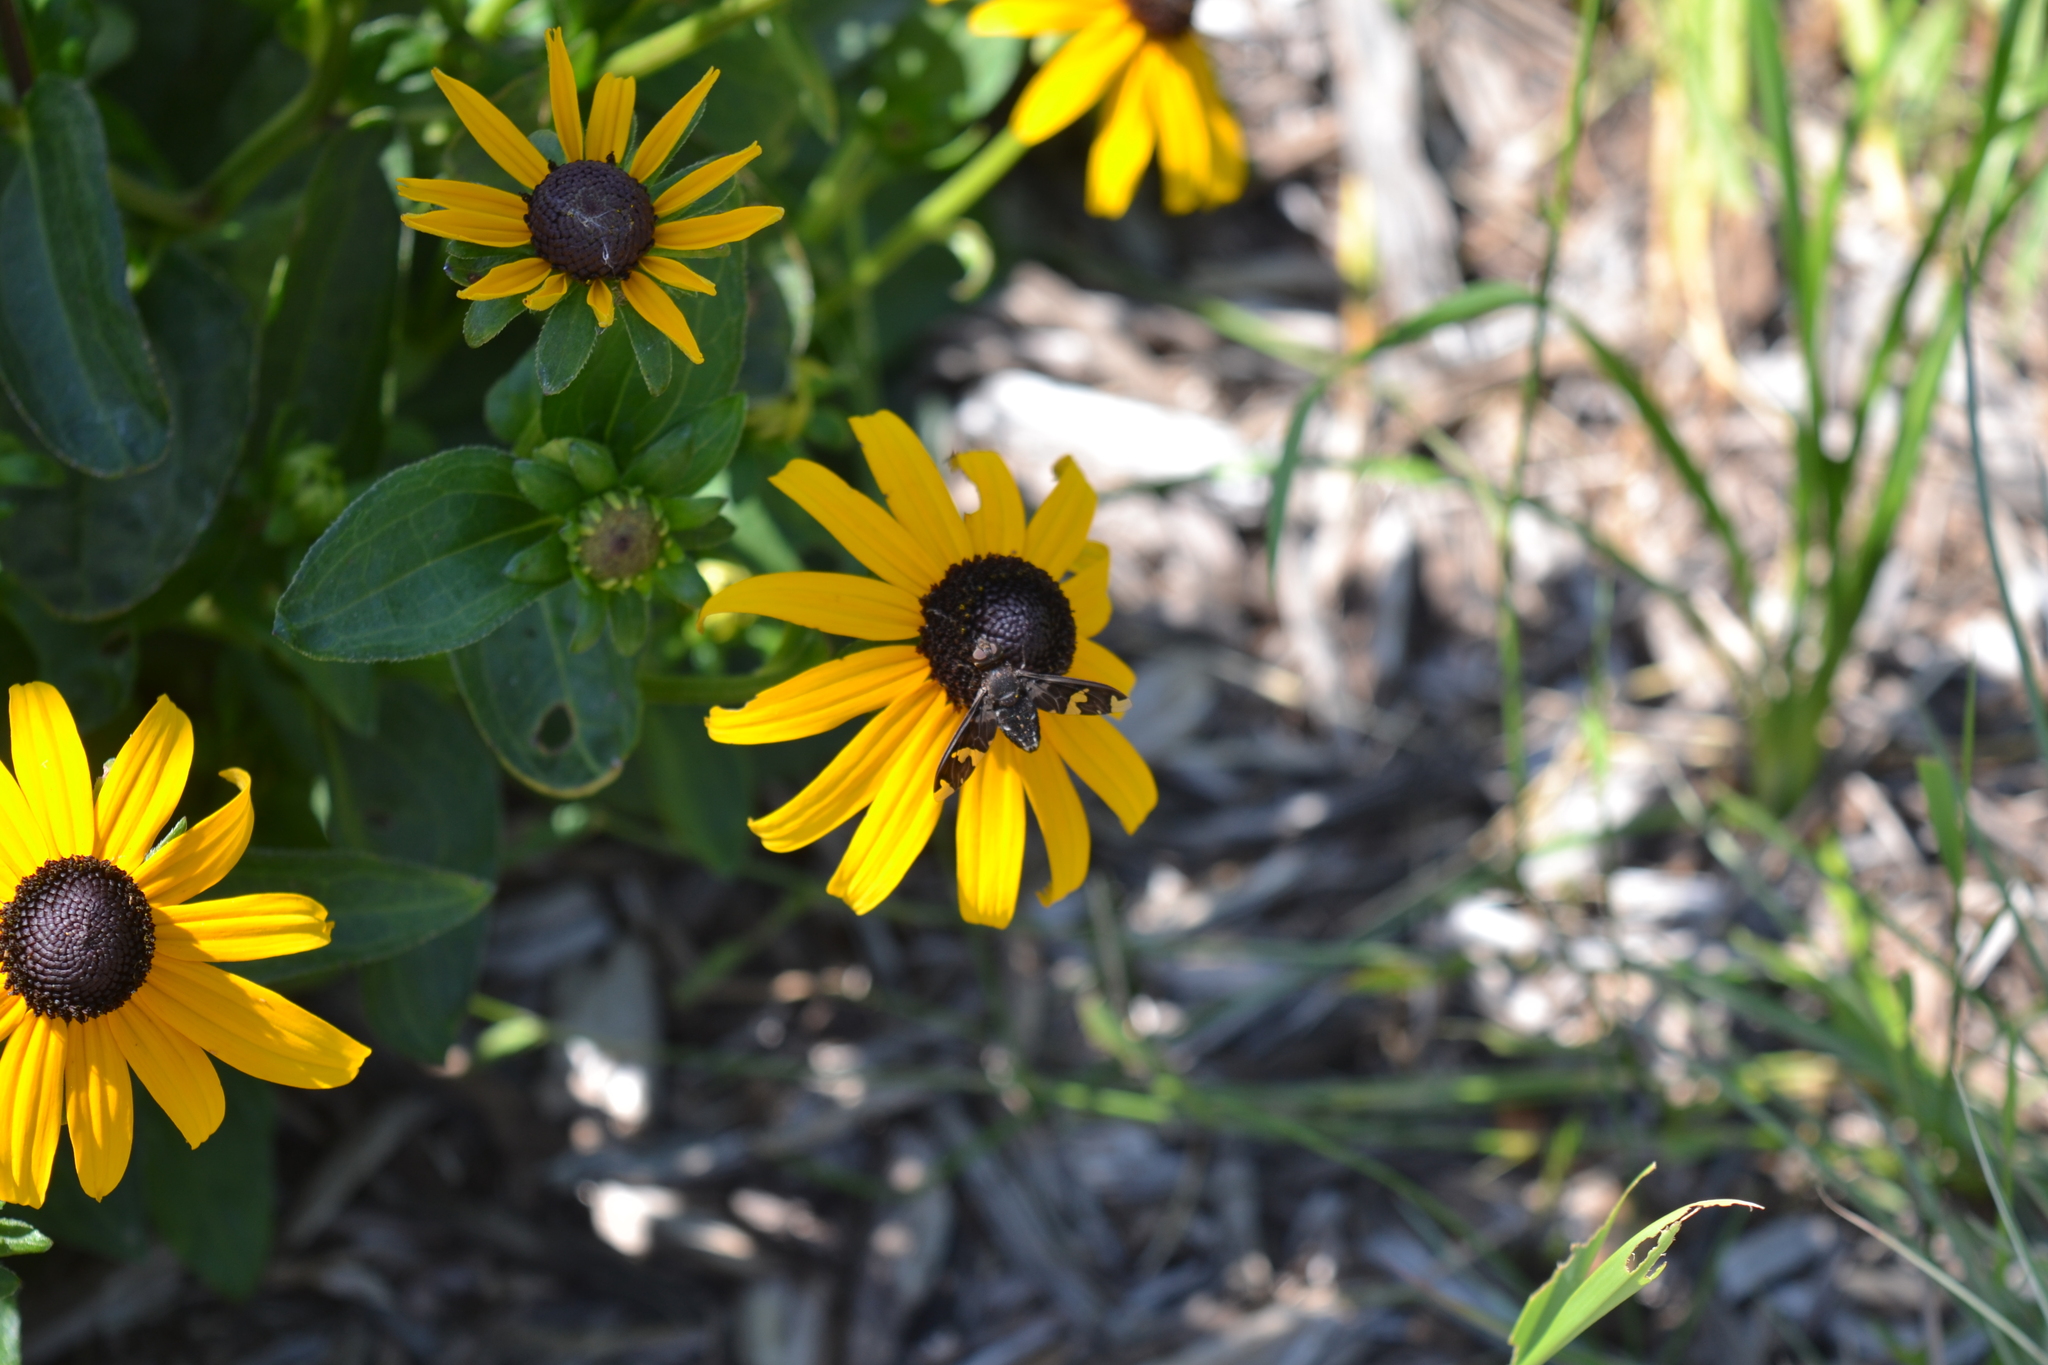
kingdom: Animalia
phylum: Arthropoda
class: Insecta
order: Diptera
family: Bombyliidae
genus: Exoprosopa
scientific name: Exoprosopa decora
